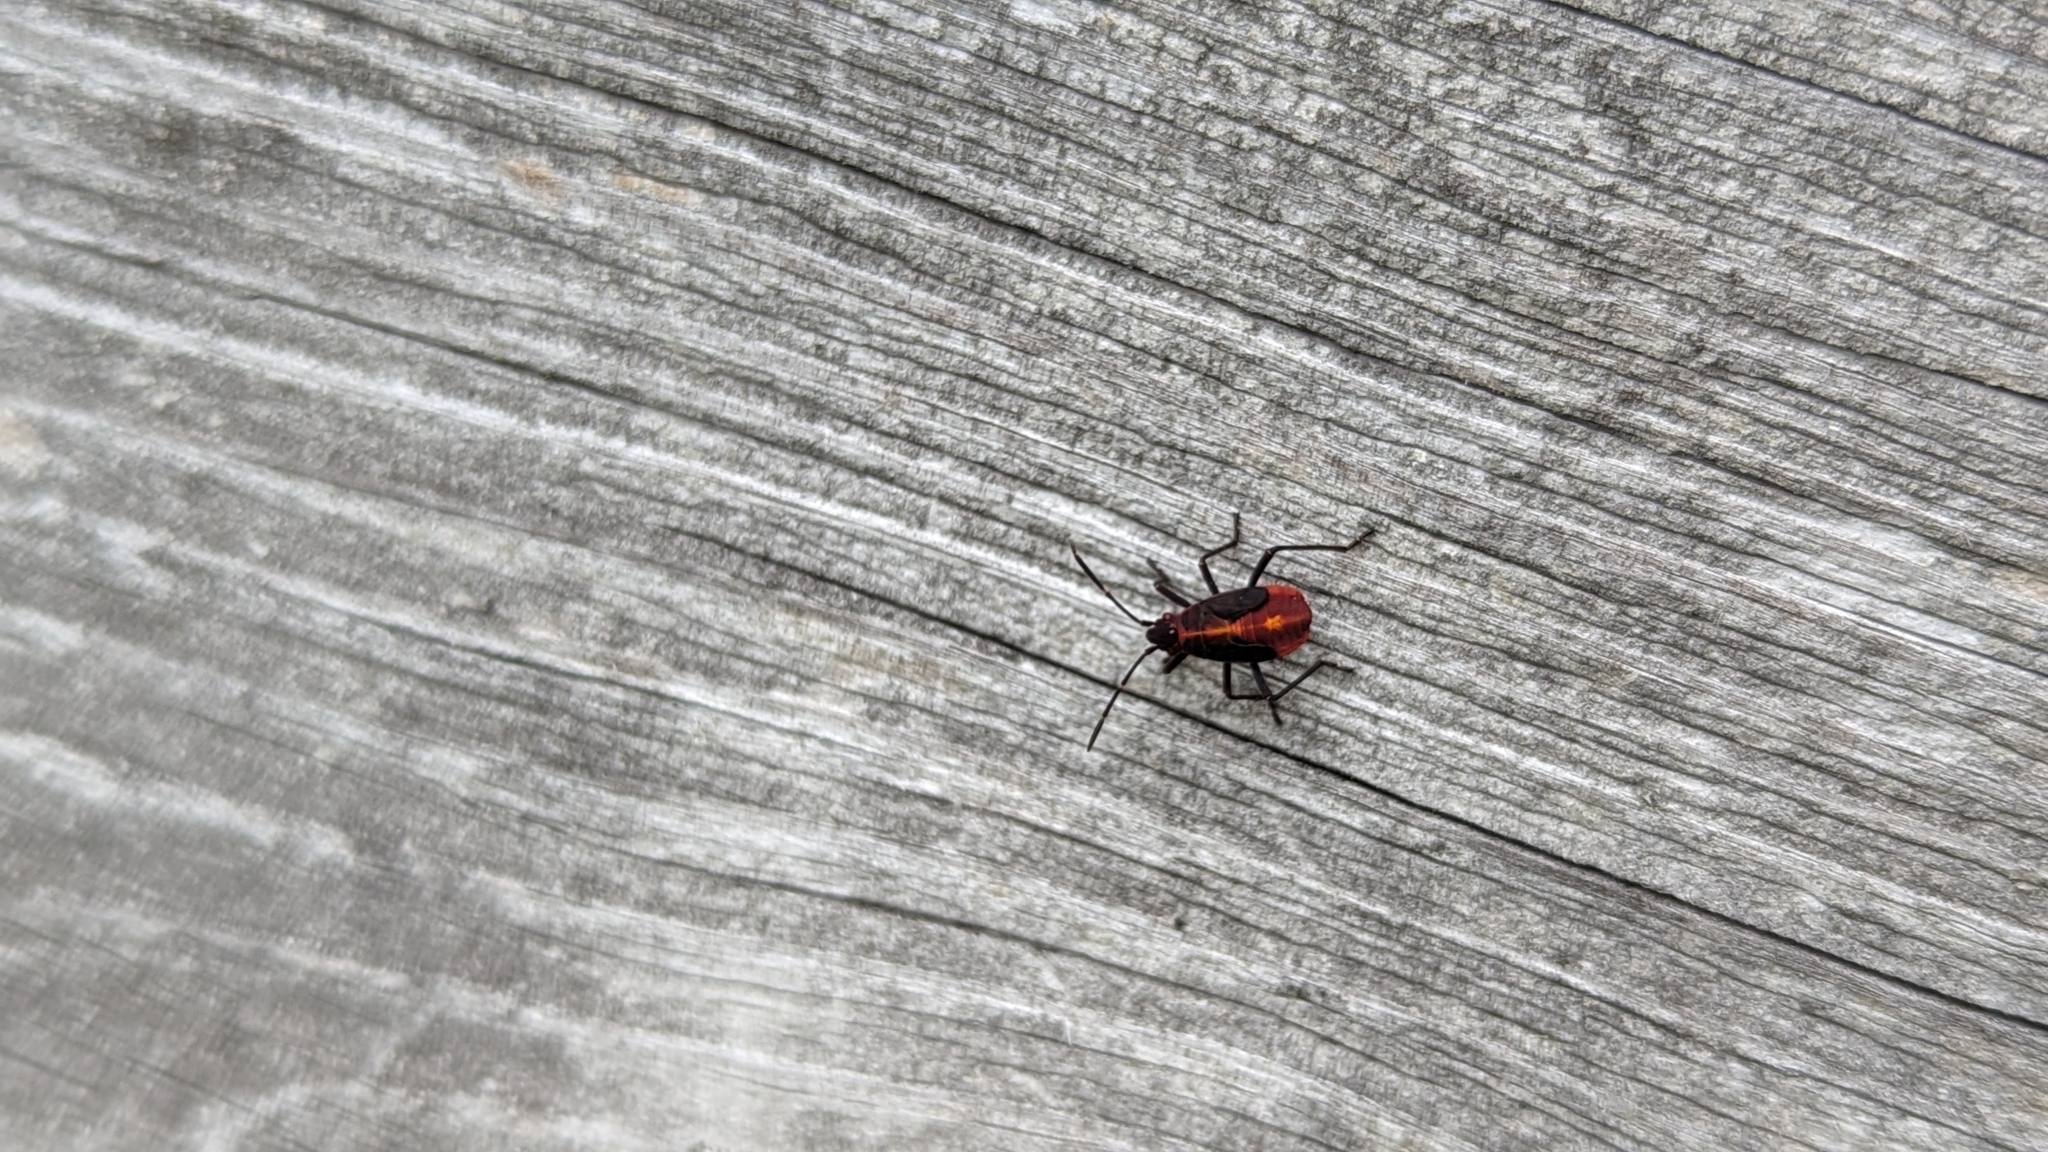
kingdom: Animalia
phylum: Arthropoda
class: Insecta
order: Hemiptera
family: Rhopalidae
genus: Boisea
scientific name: Boisea trivittata
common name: Boxelder bug
